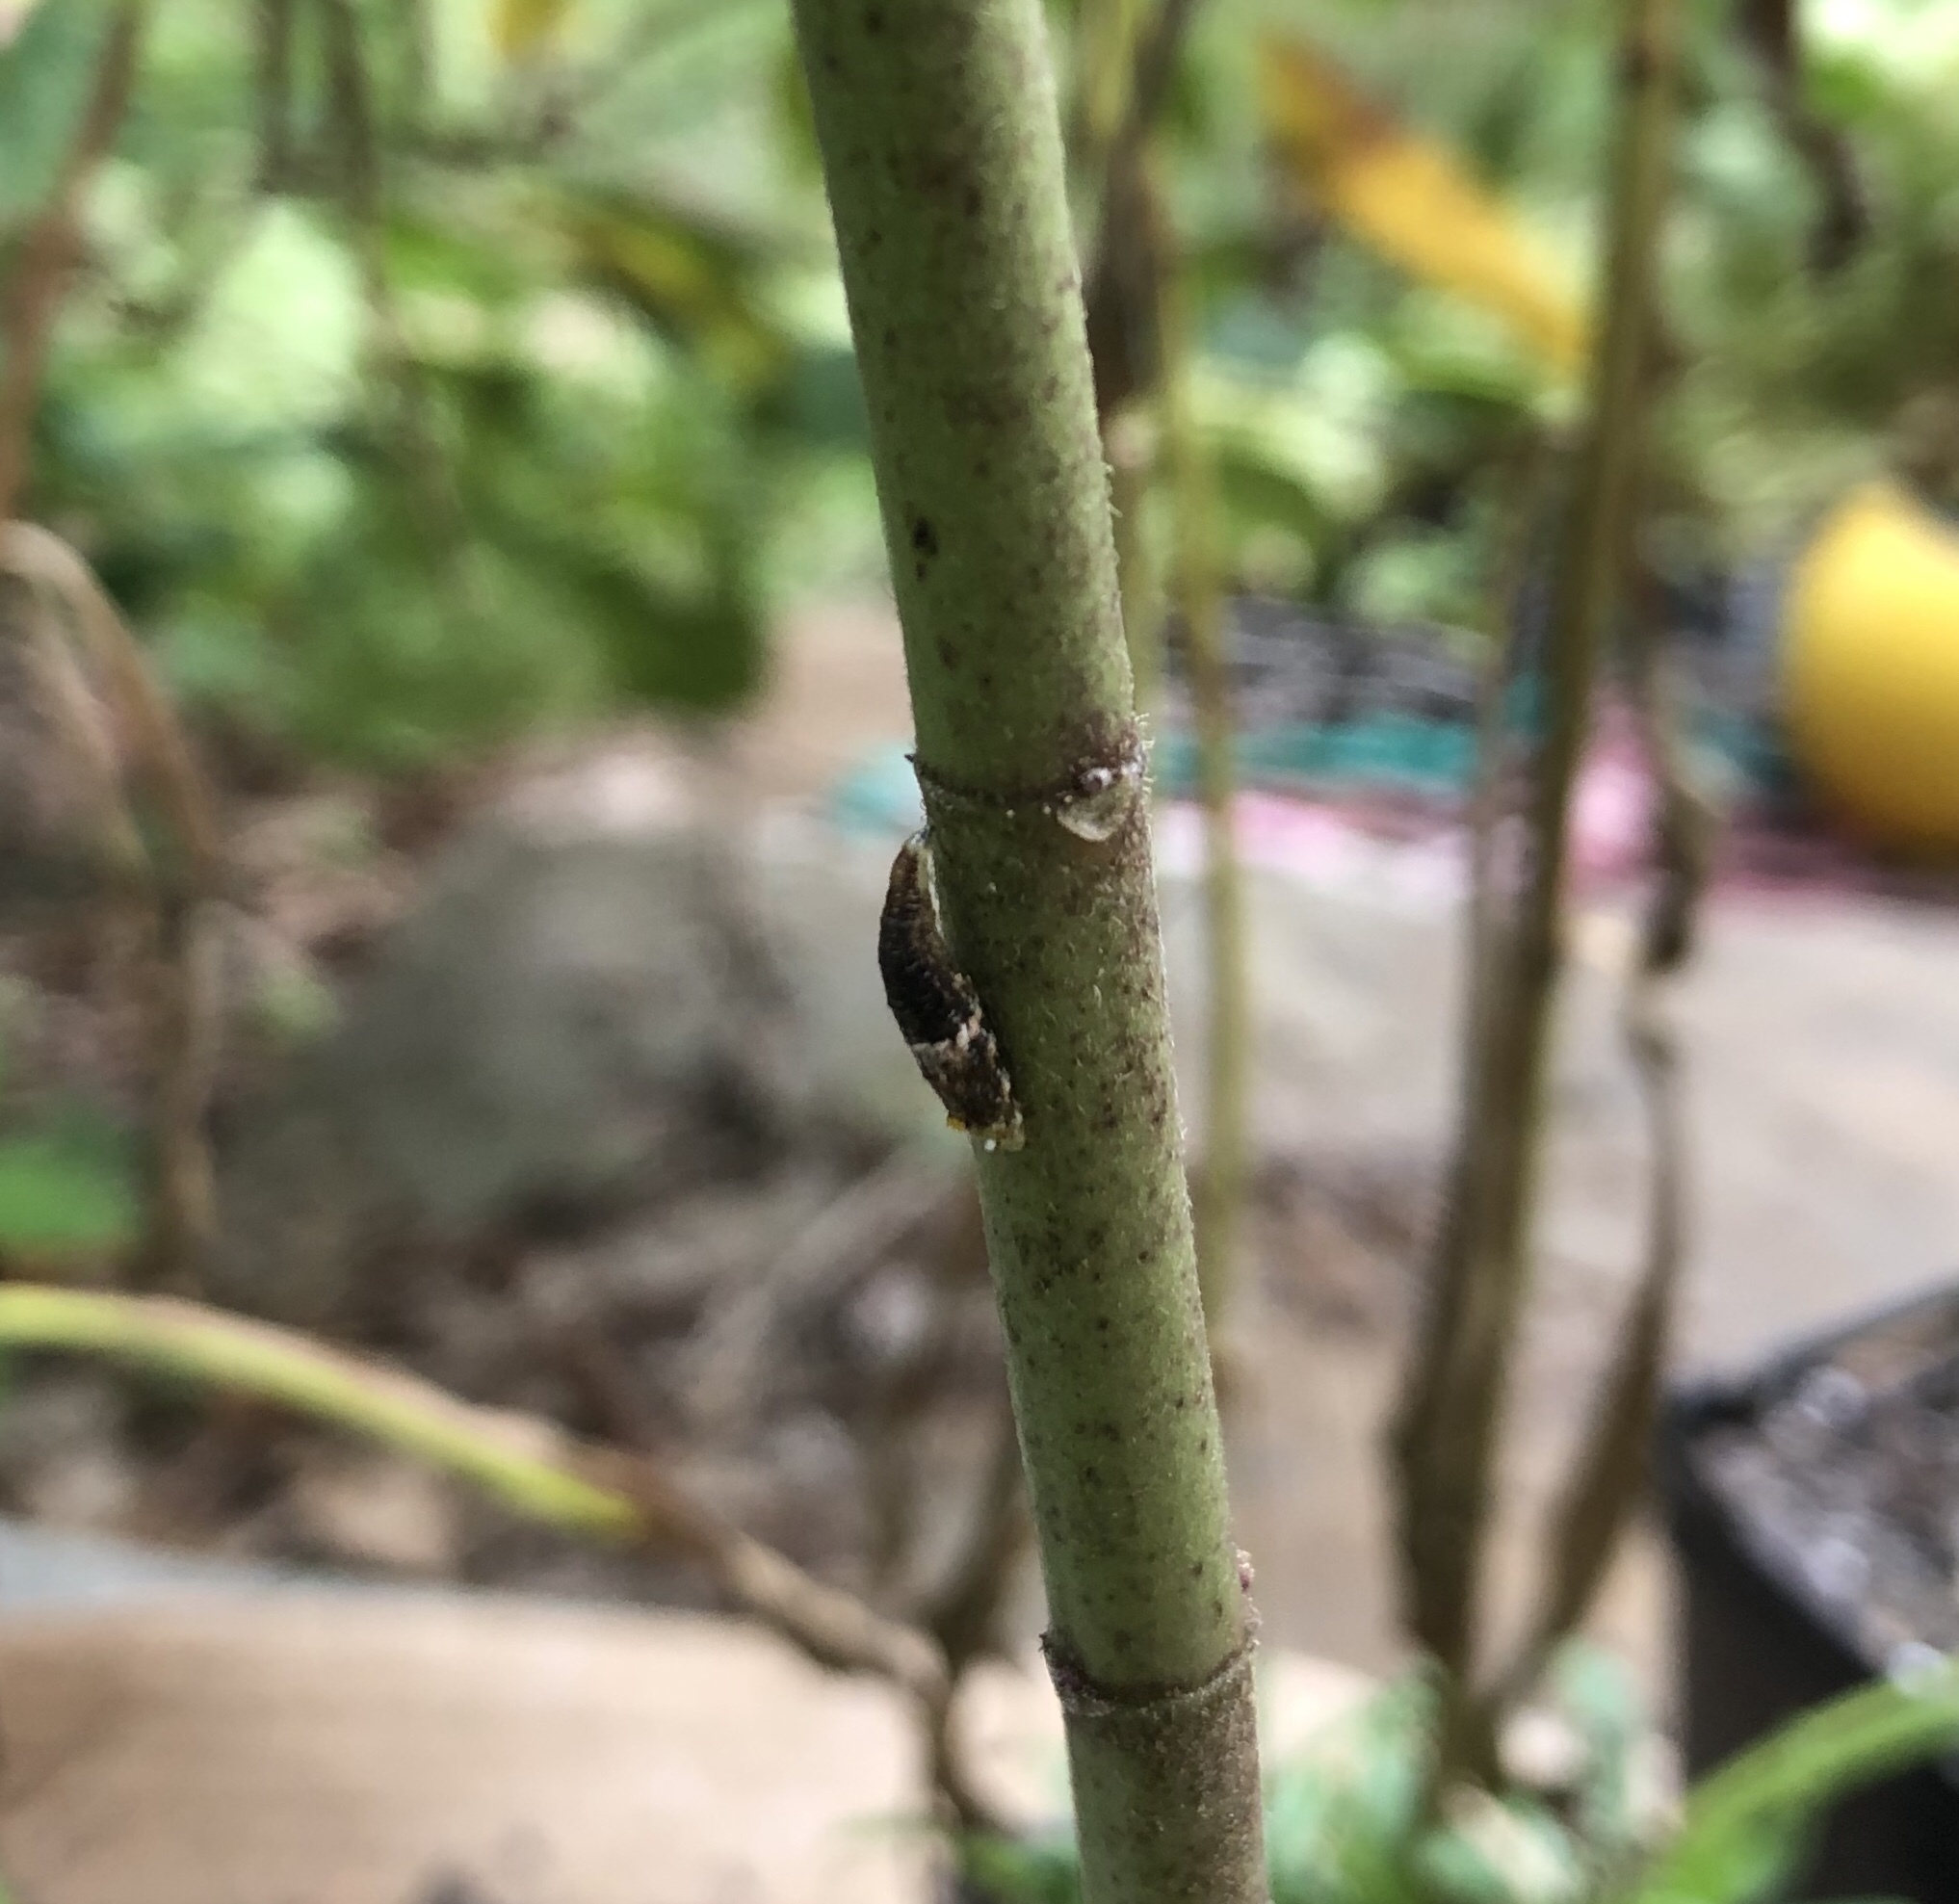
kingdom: Animalia
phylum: Arthropoda
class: Insecta
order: Diptera
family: Syrphidae
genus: Ocyptamus
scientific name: Ocyptamus fuscipennis
